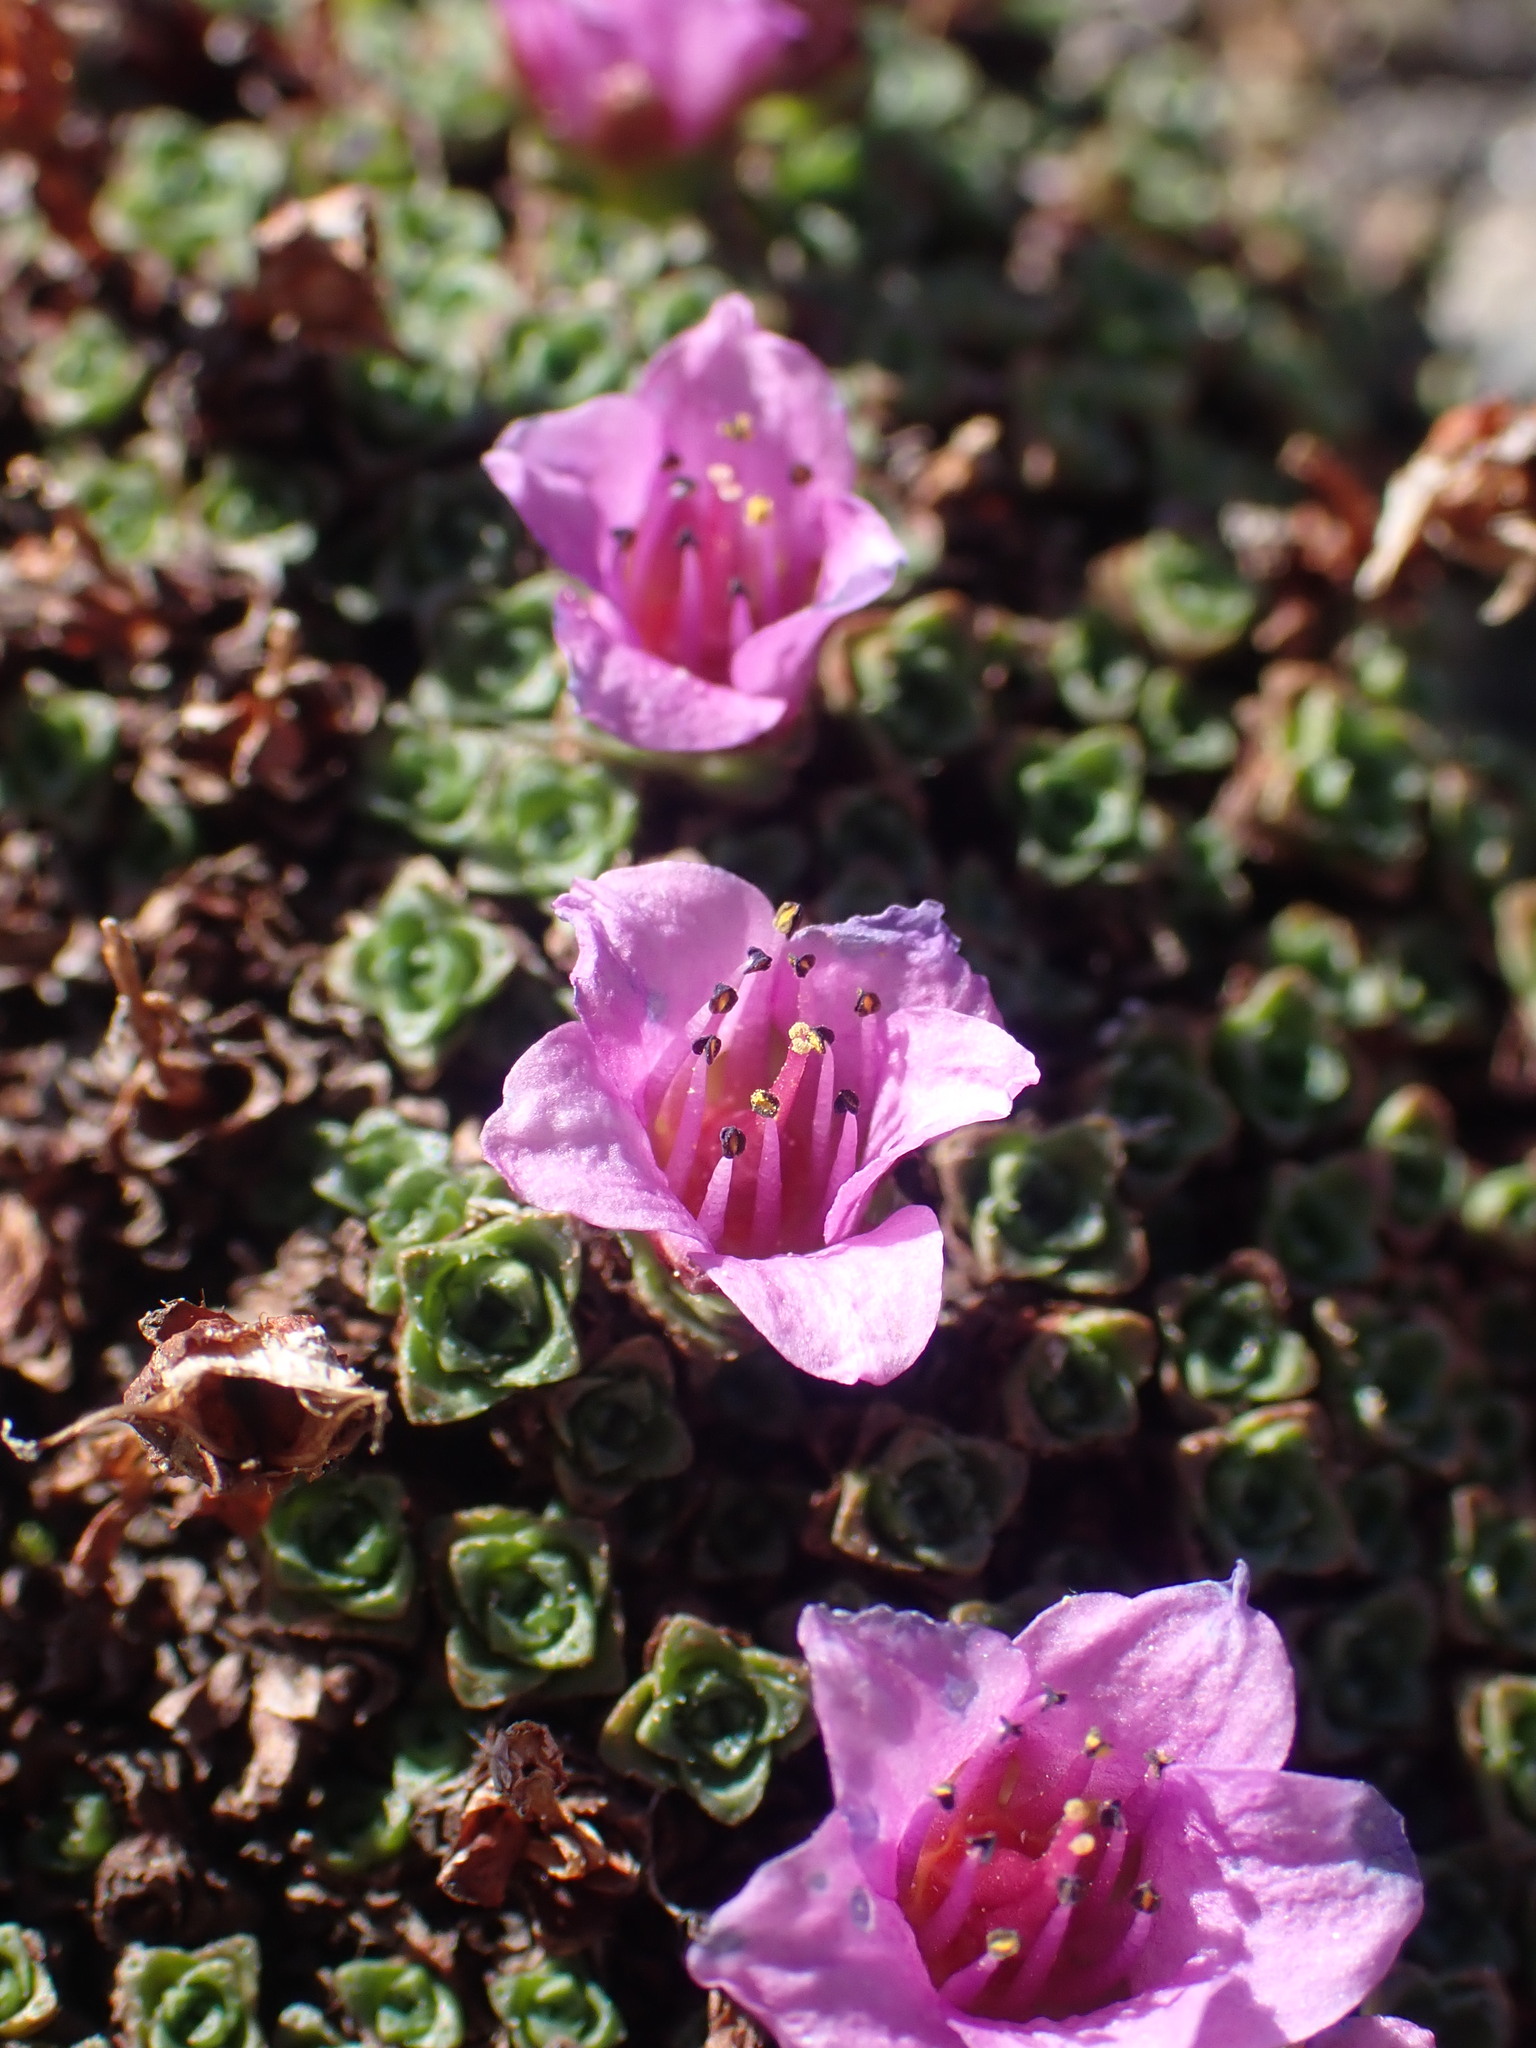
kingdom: Plantae
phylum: Tracheophyta
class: Magnoliopsida
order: Saxifragales
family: Saxifragaceae
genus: Saxifraga
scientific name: Saxifraga oppositifolia
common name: Purple saxifrage
